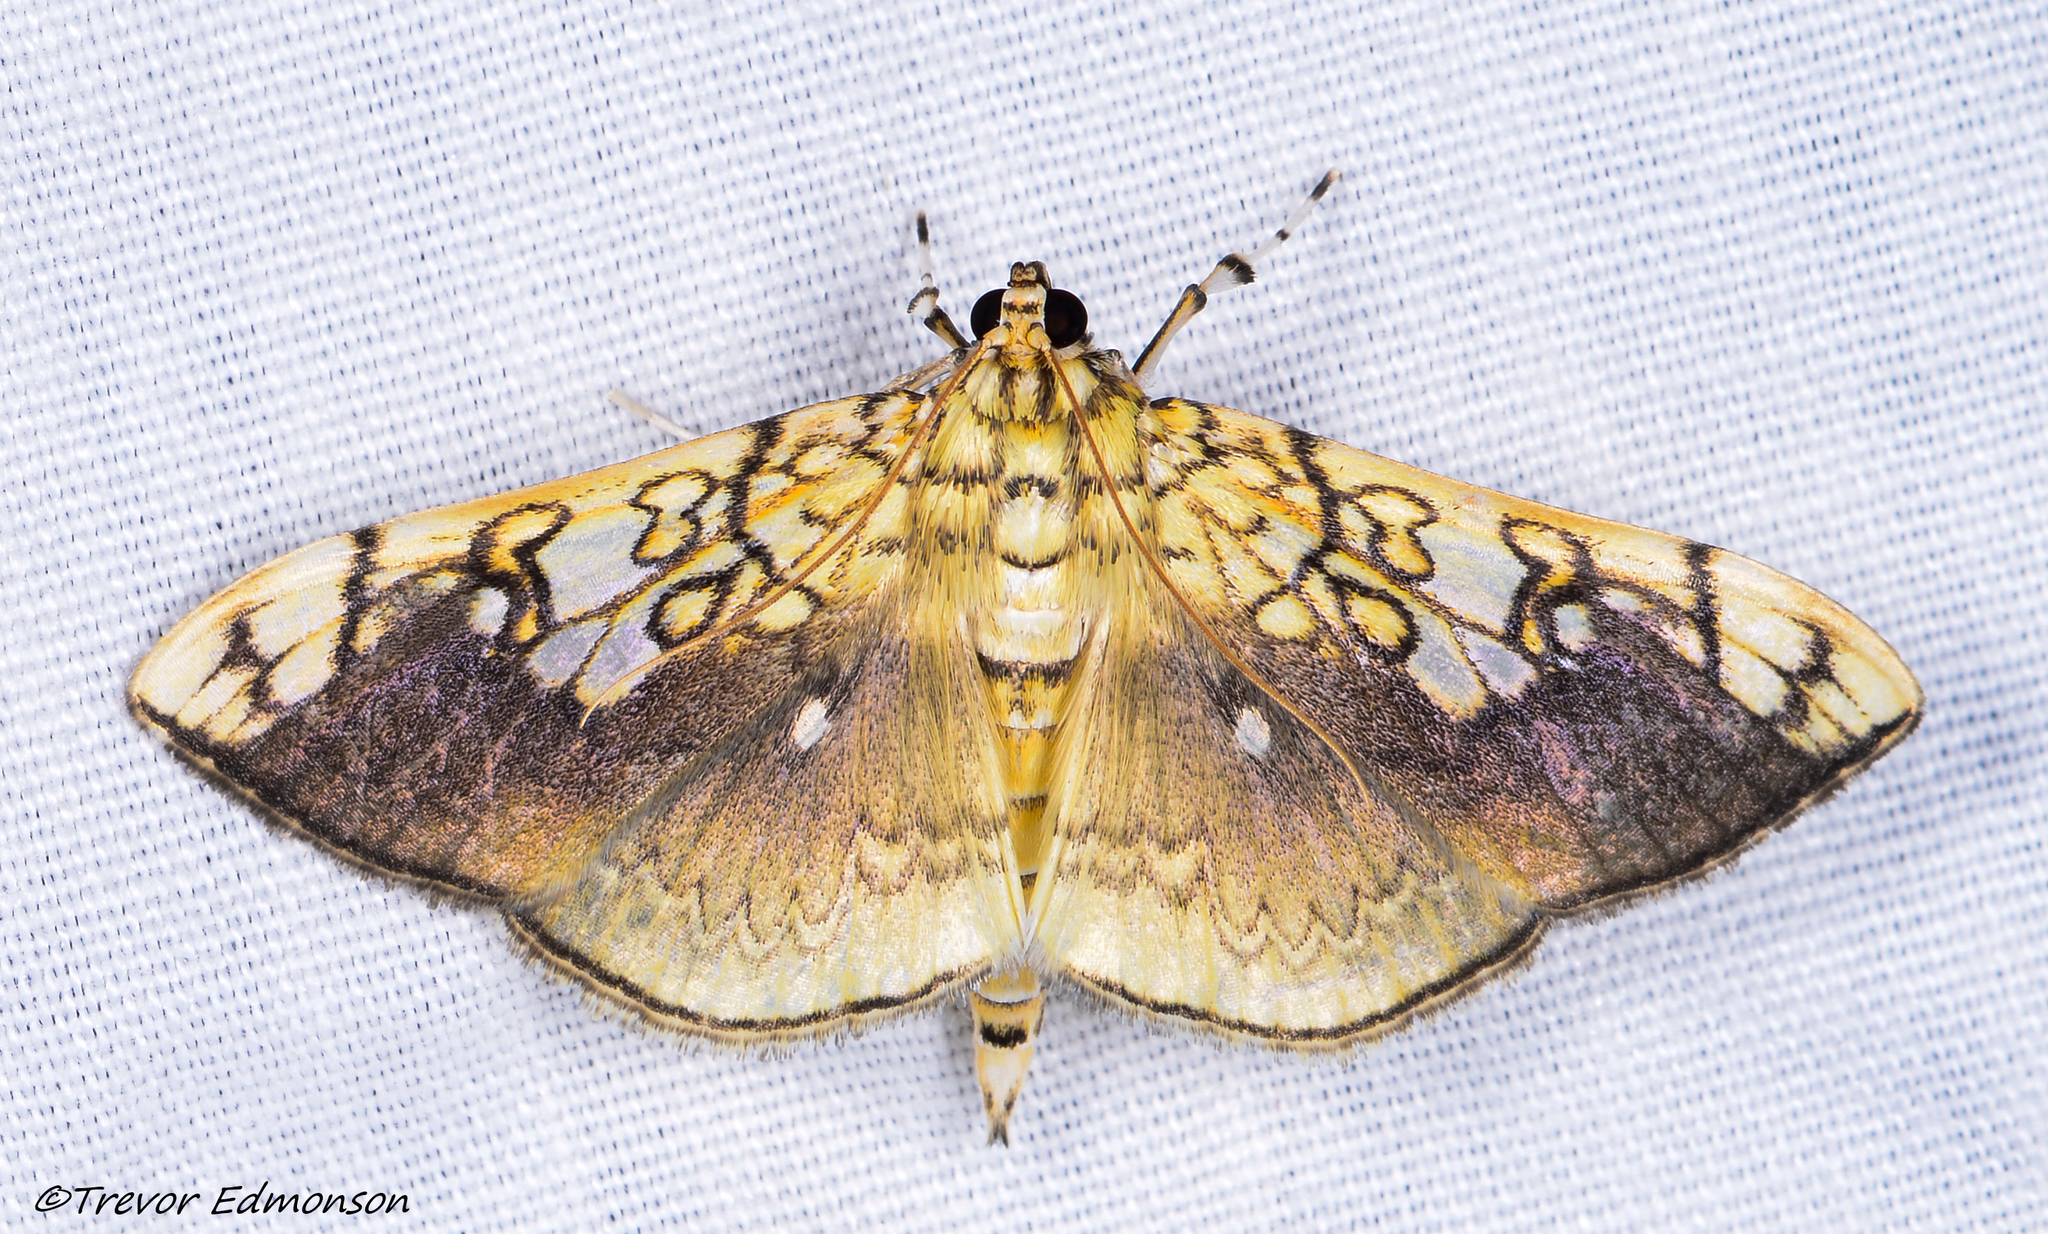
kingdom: Animalia
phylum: Arthropoda
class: Insecta
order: Lepidoptera
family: Crambidae
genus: Pantographa
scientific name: Pantographa limata
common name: Basswood leafroller moth
